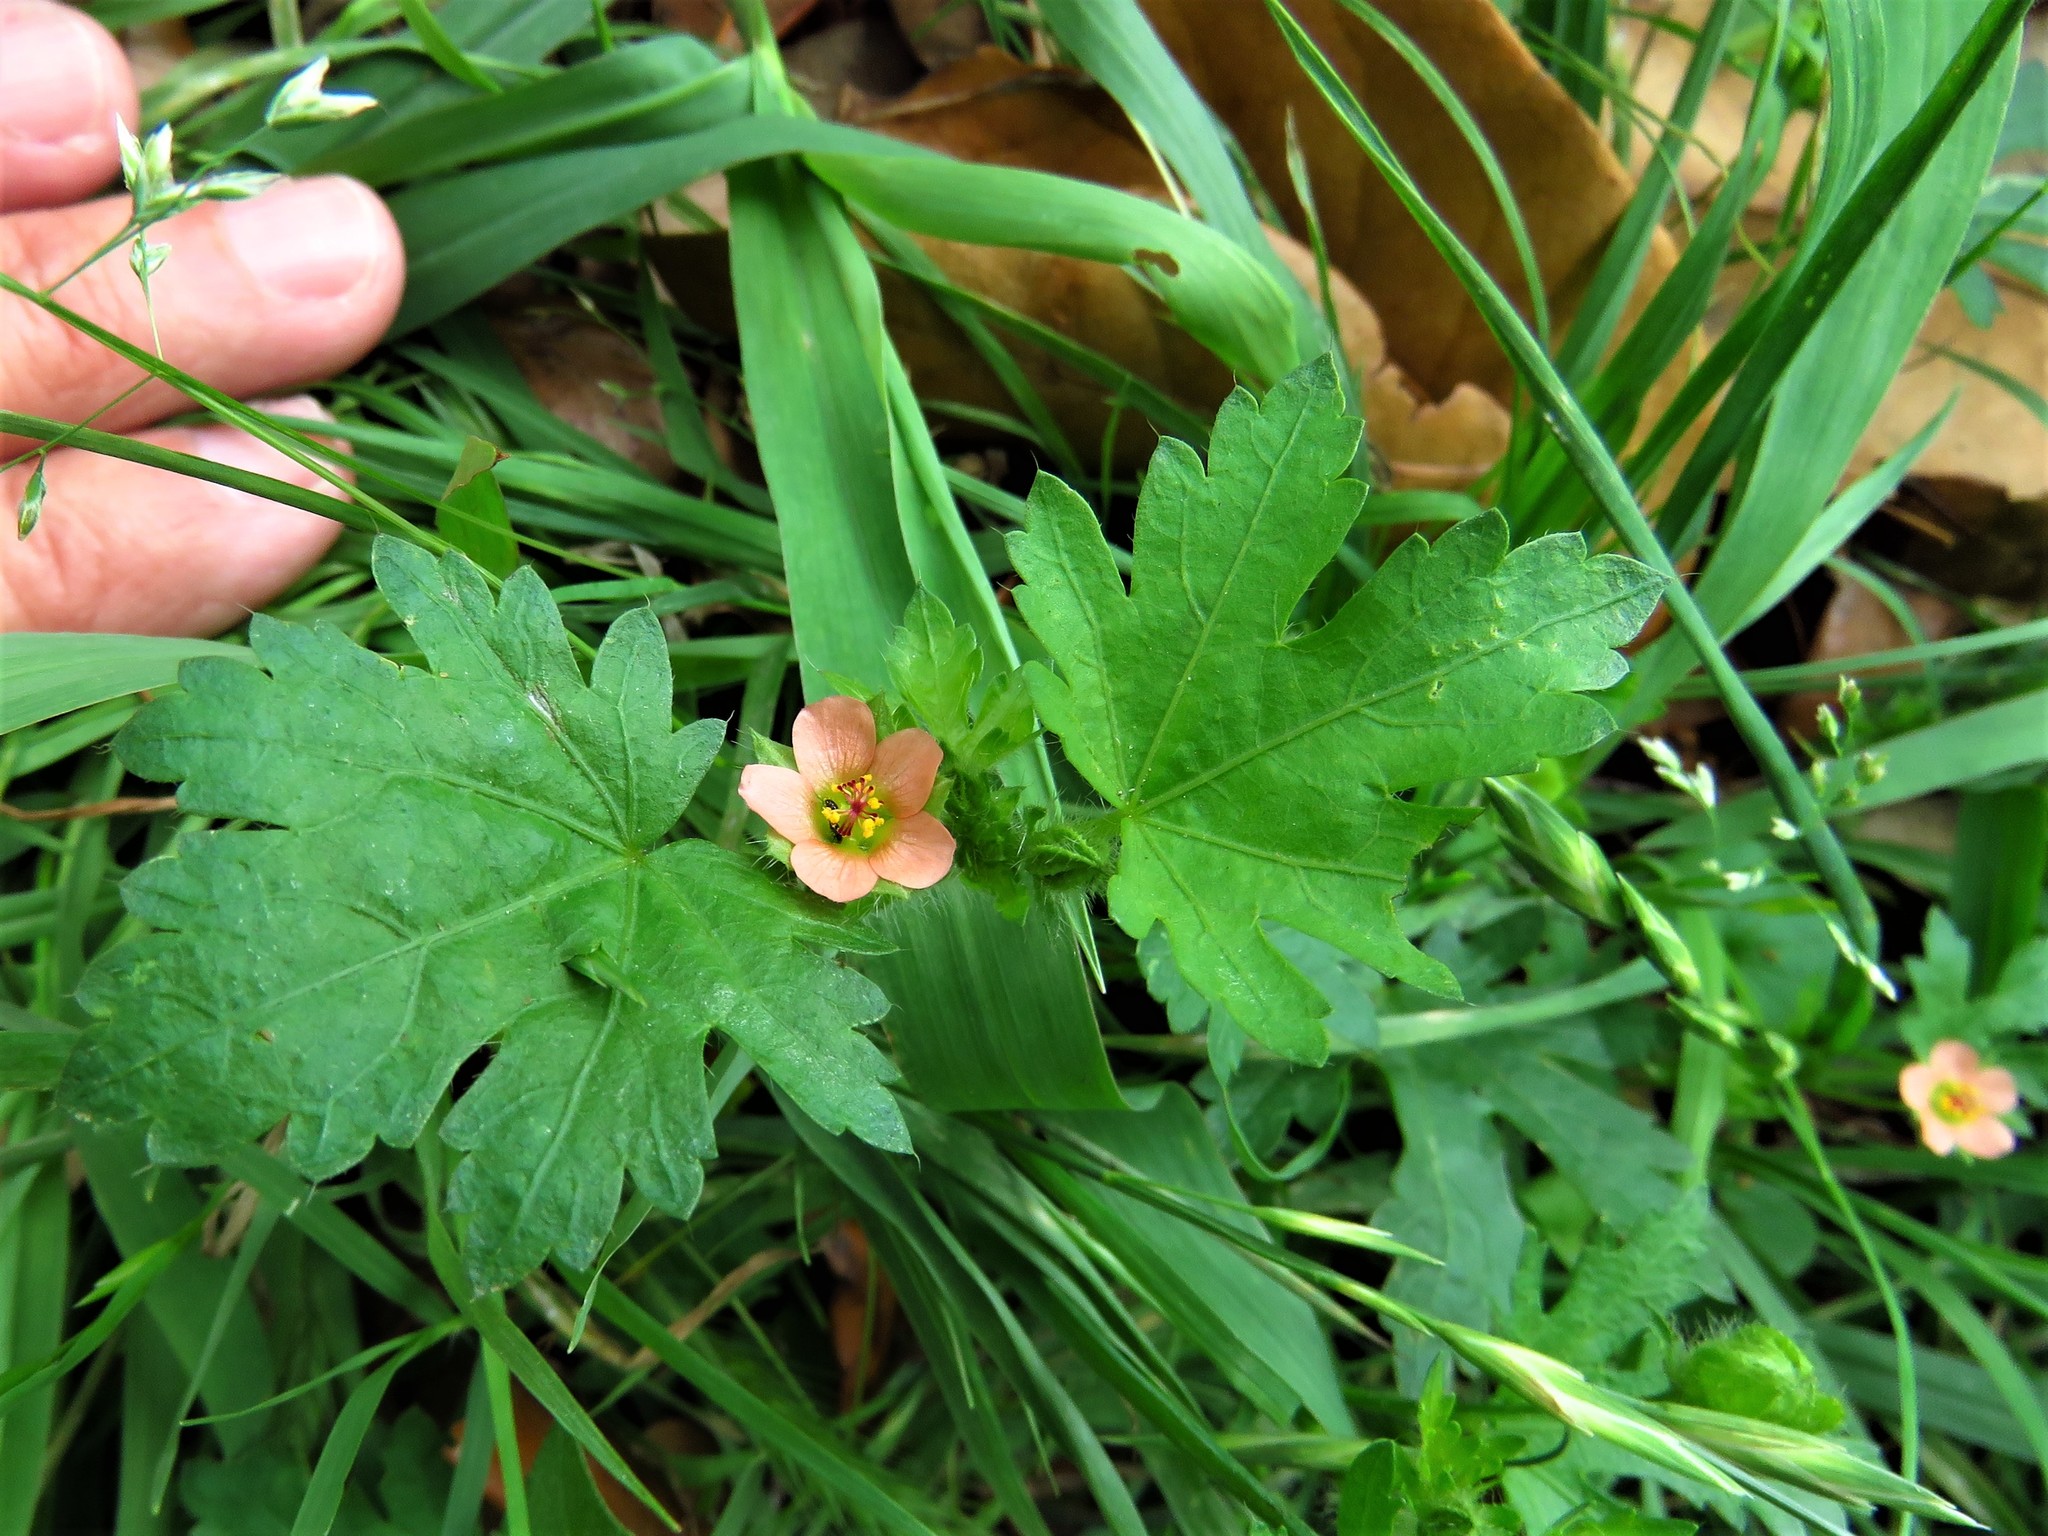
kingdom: Plantae
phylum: Tracheophyta
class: Magnoliopsida
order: Malvales
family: Malvaceae
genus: Modiola
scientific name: Modiola caroliniana
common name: Carolina bristlemallow
